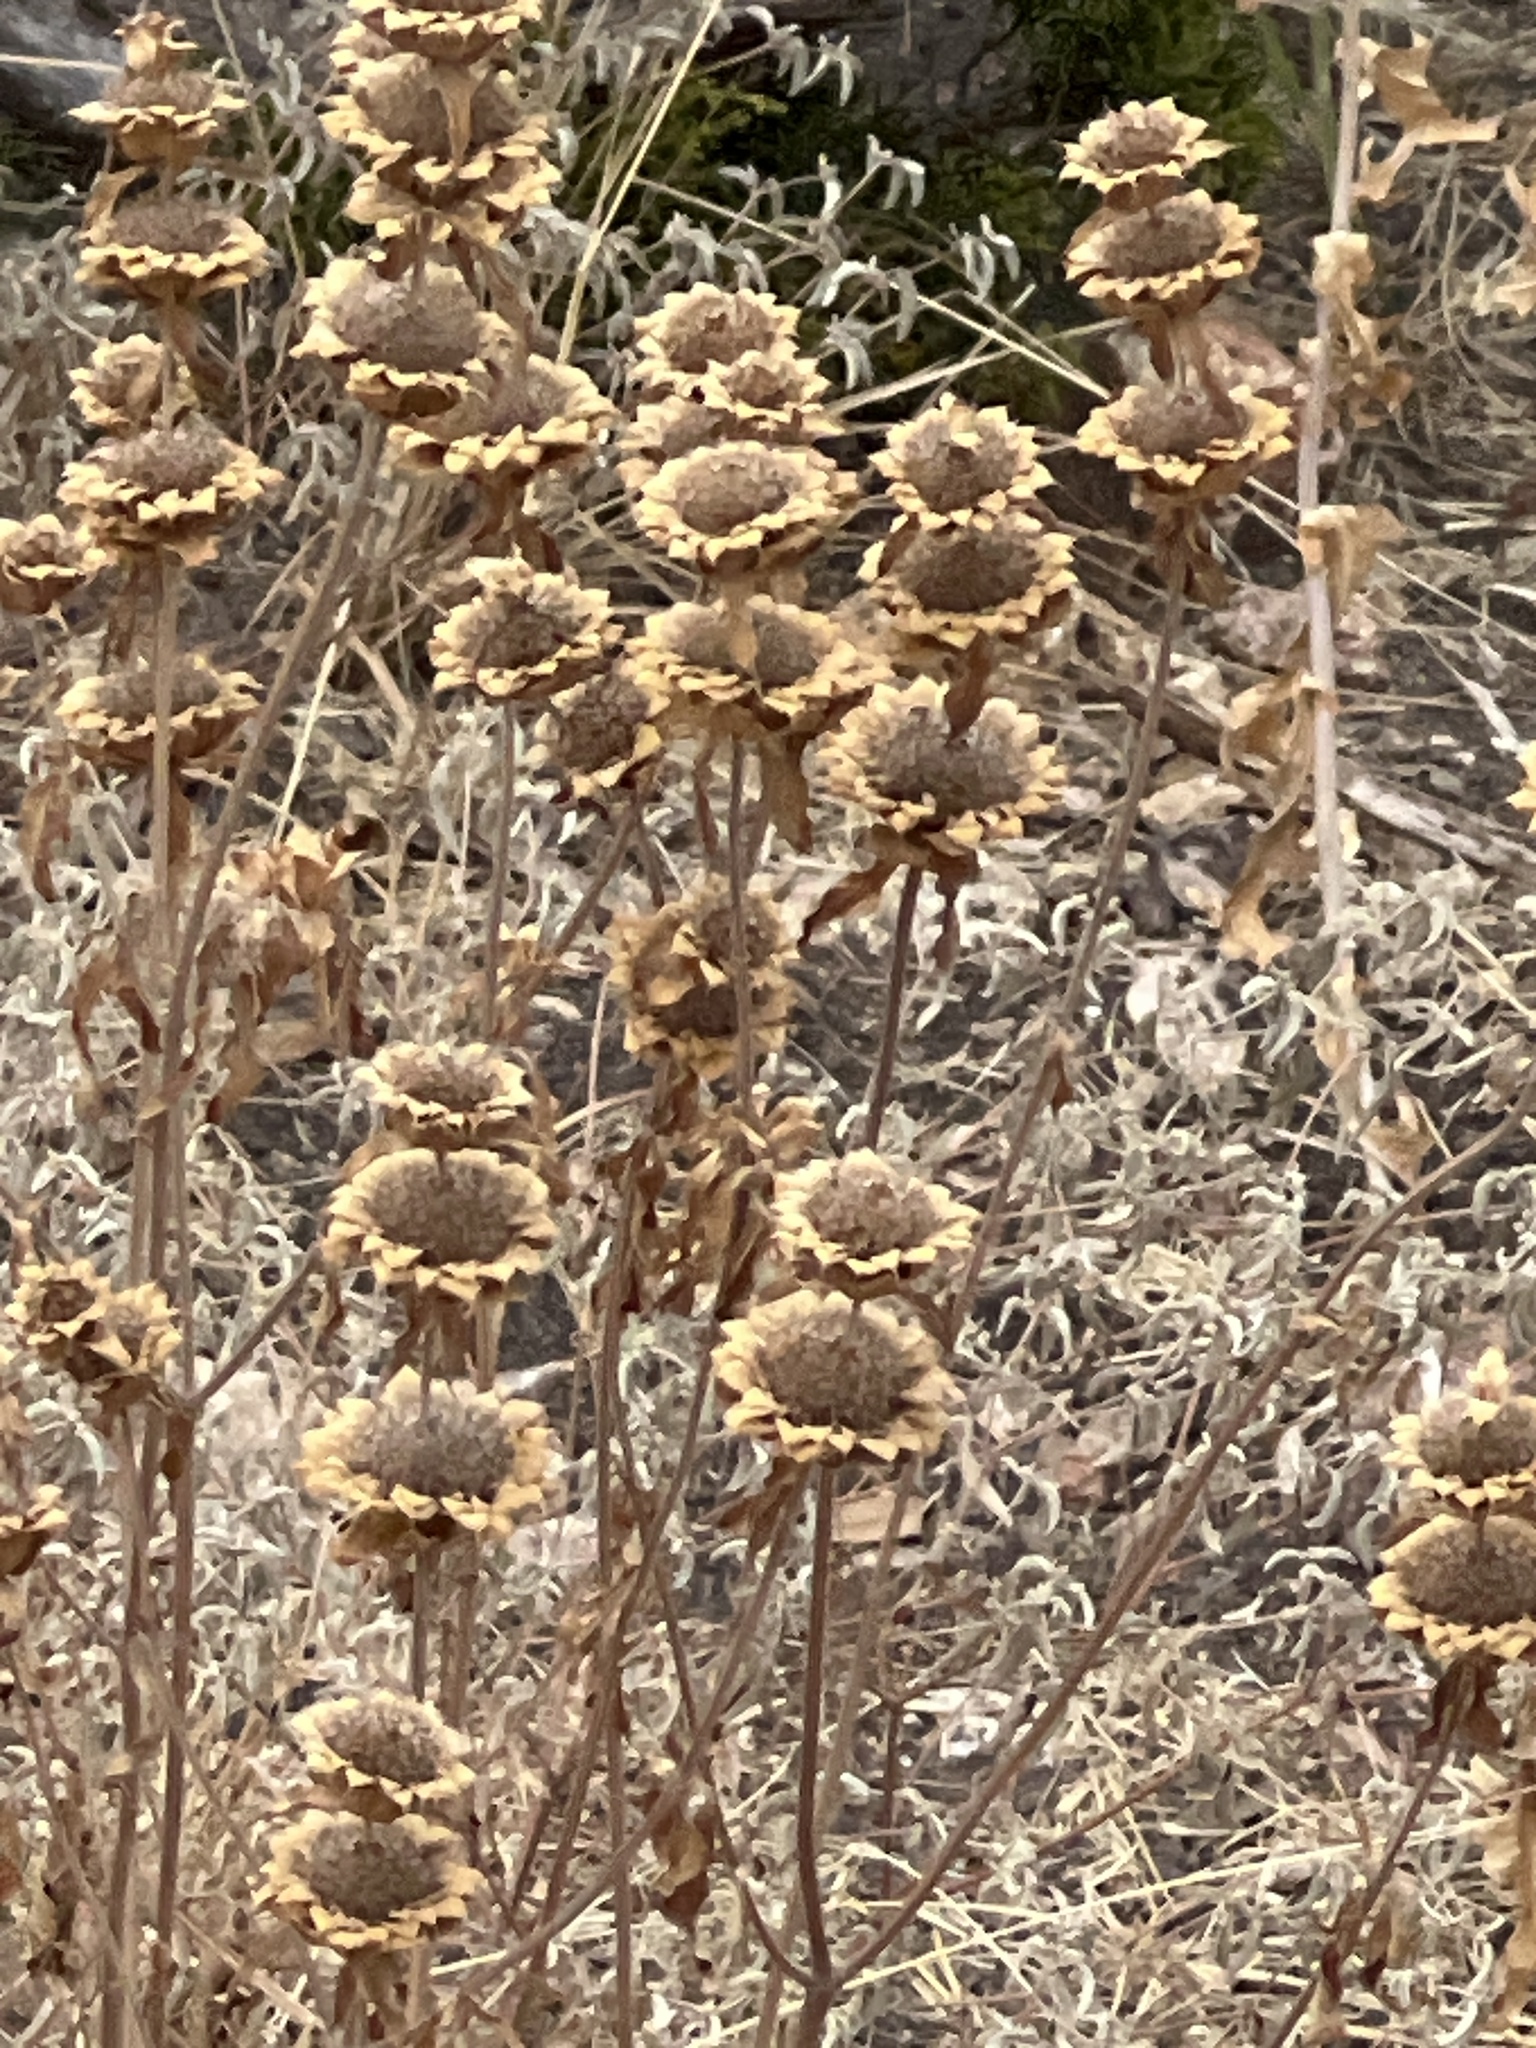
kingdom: Plantae
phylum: Tracheophyta
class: Magnoliopsida
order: Lamiales
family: Lamiaceae
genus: Monarda
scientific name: Monarda citriodora
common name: Lemon beebalm
